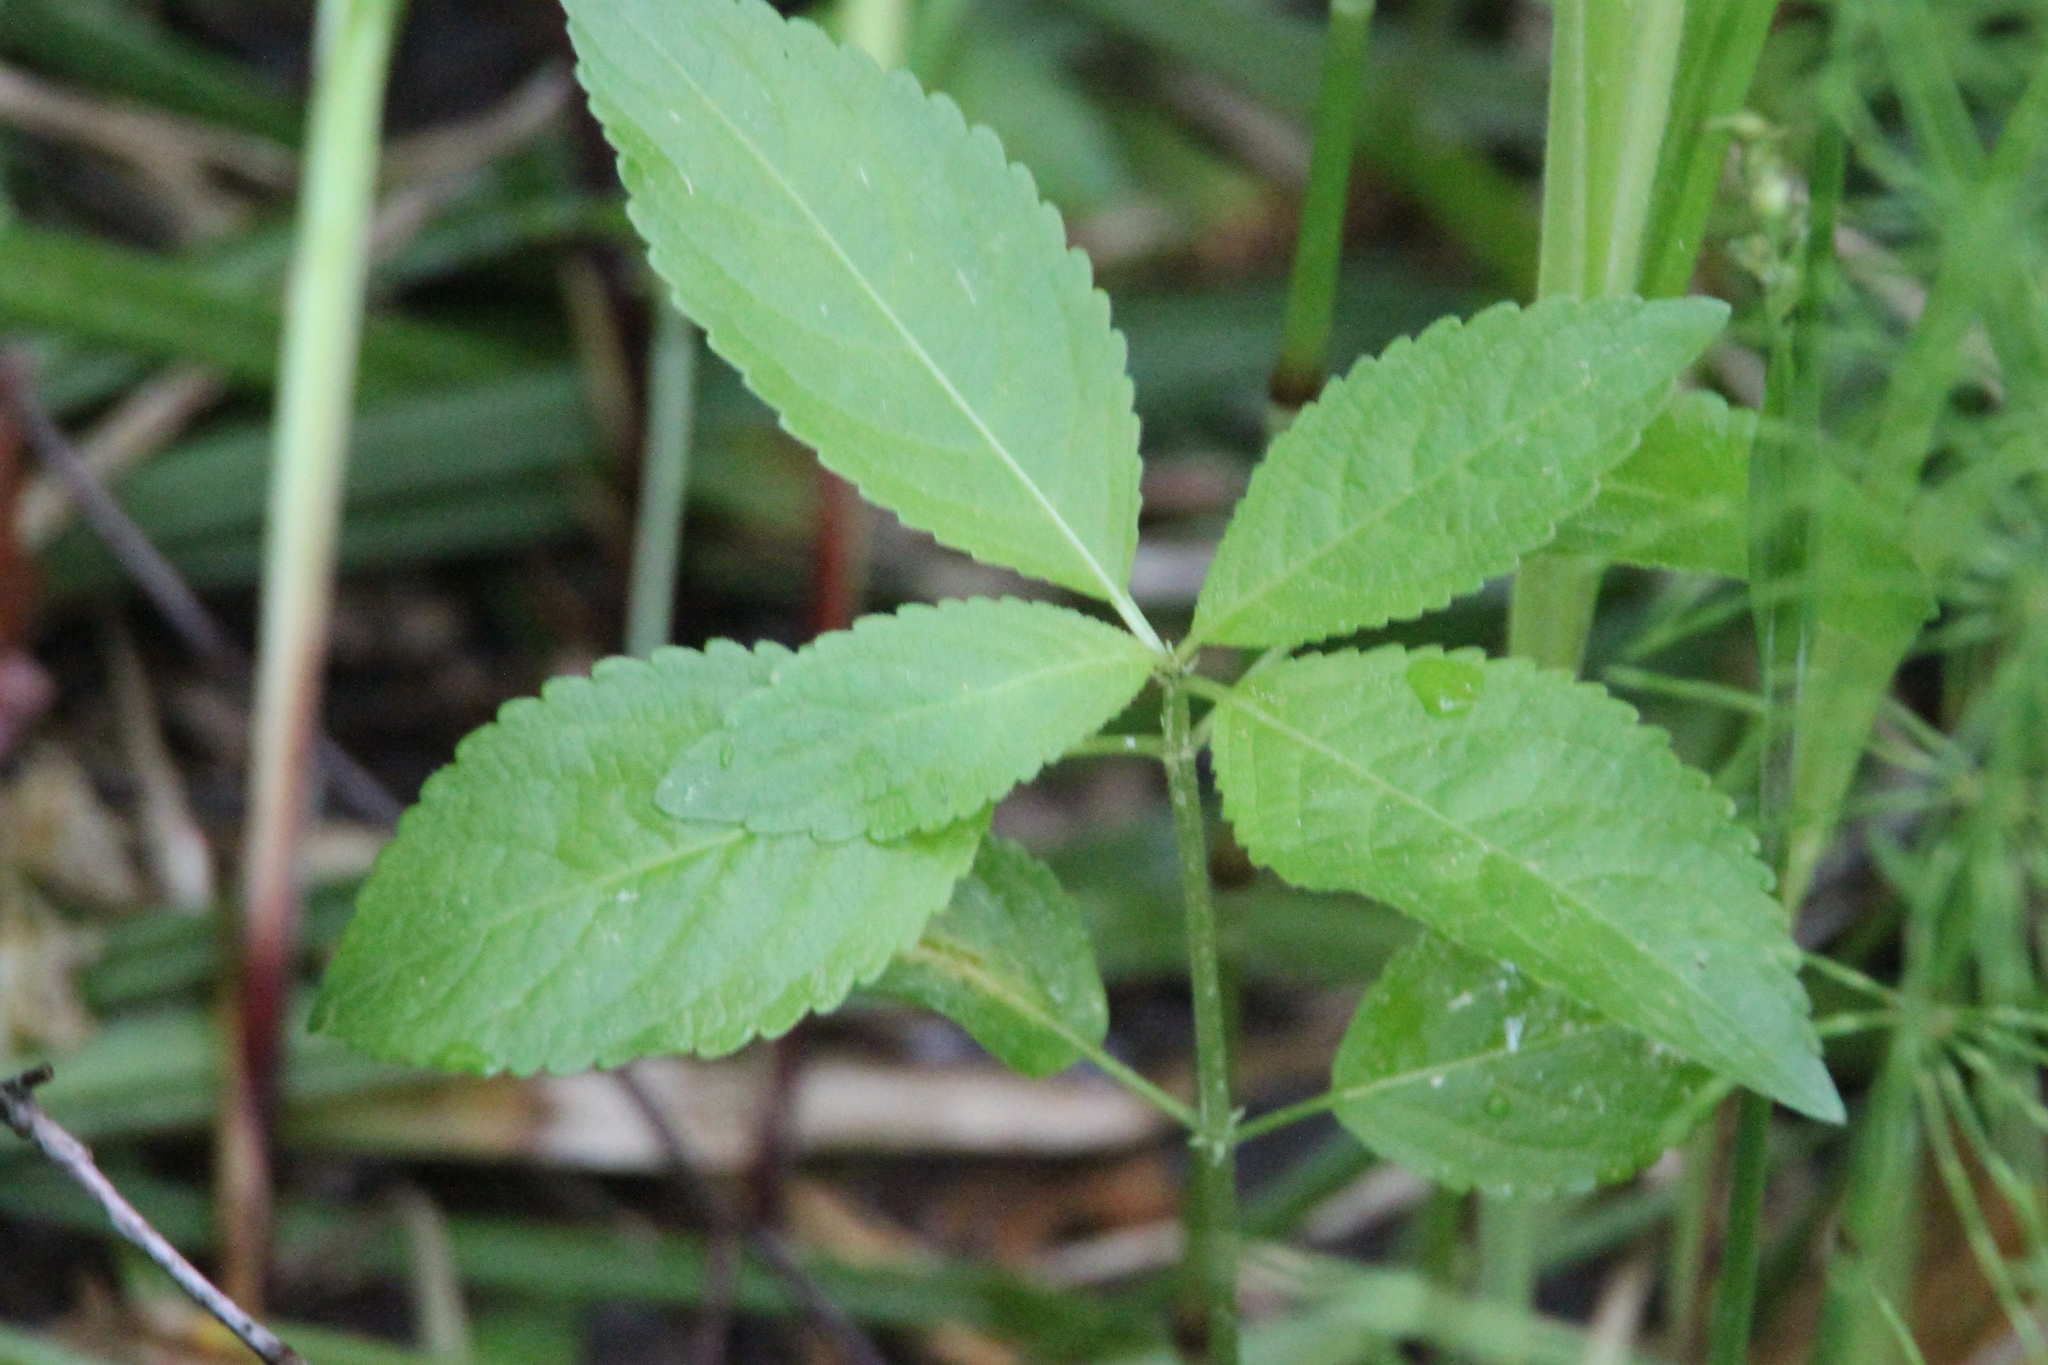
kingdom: Plantae
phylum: Tracheophyta
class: Magnoliopsida
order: Malpighiales
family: Euphorbiaceae
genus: Mercurialis
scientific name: Mercurialis perennis
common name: Dog mercury
